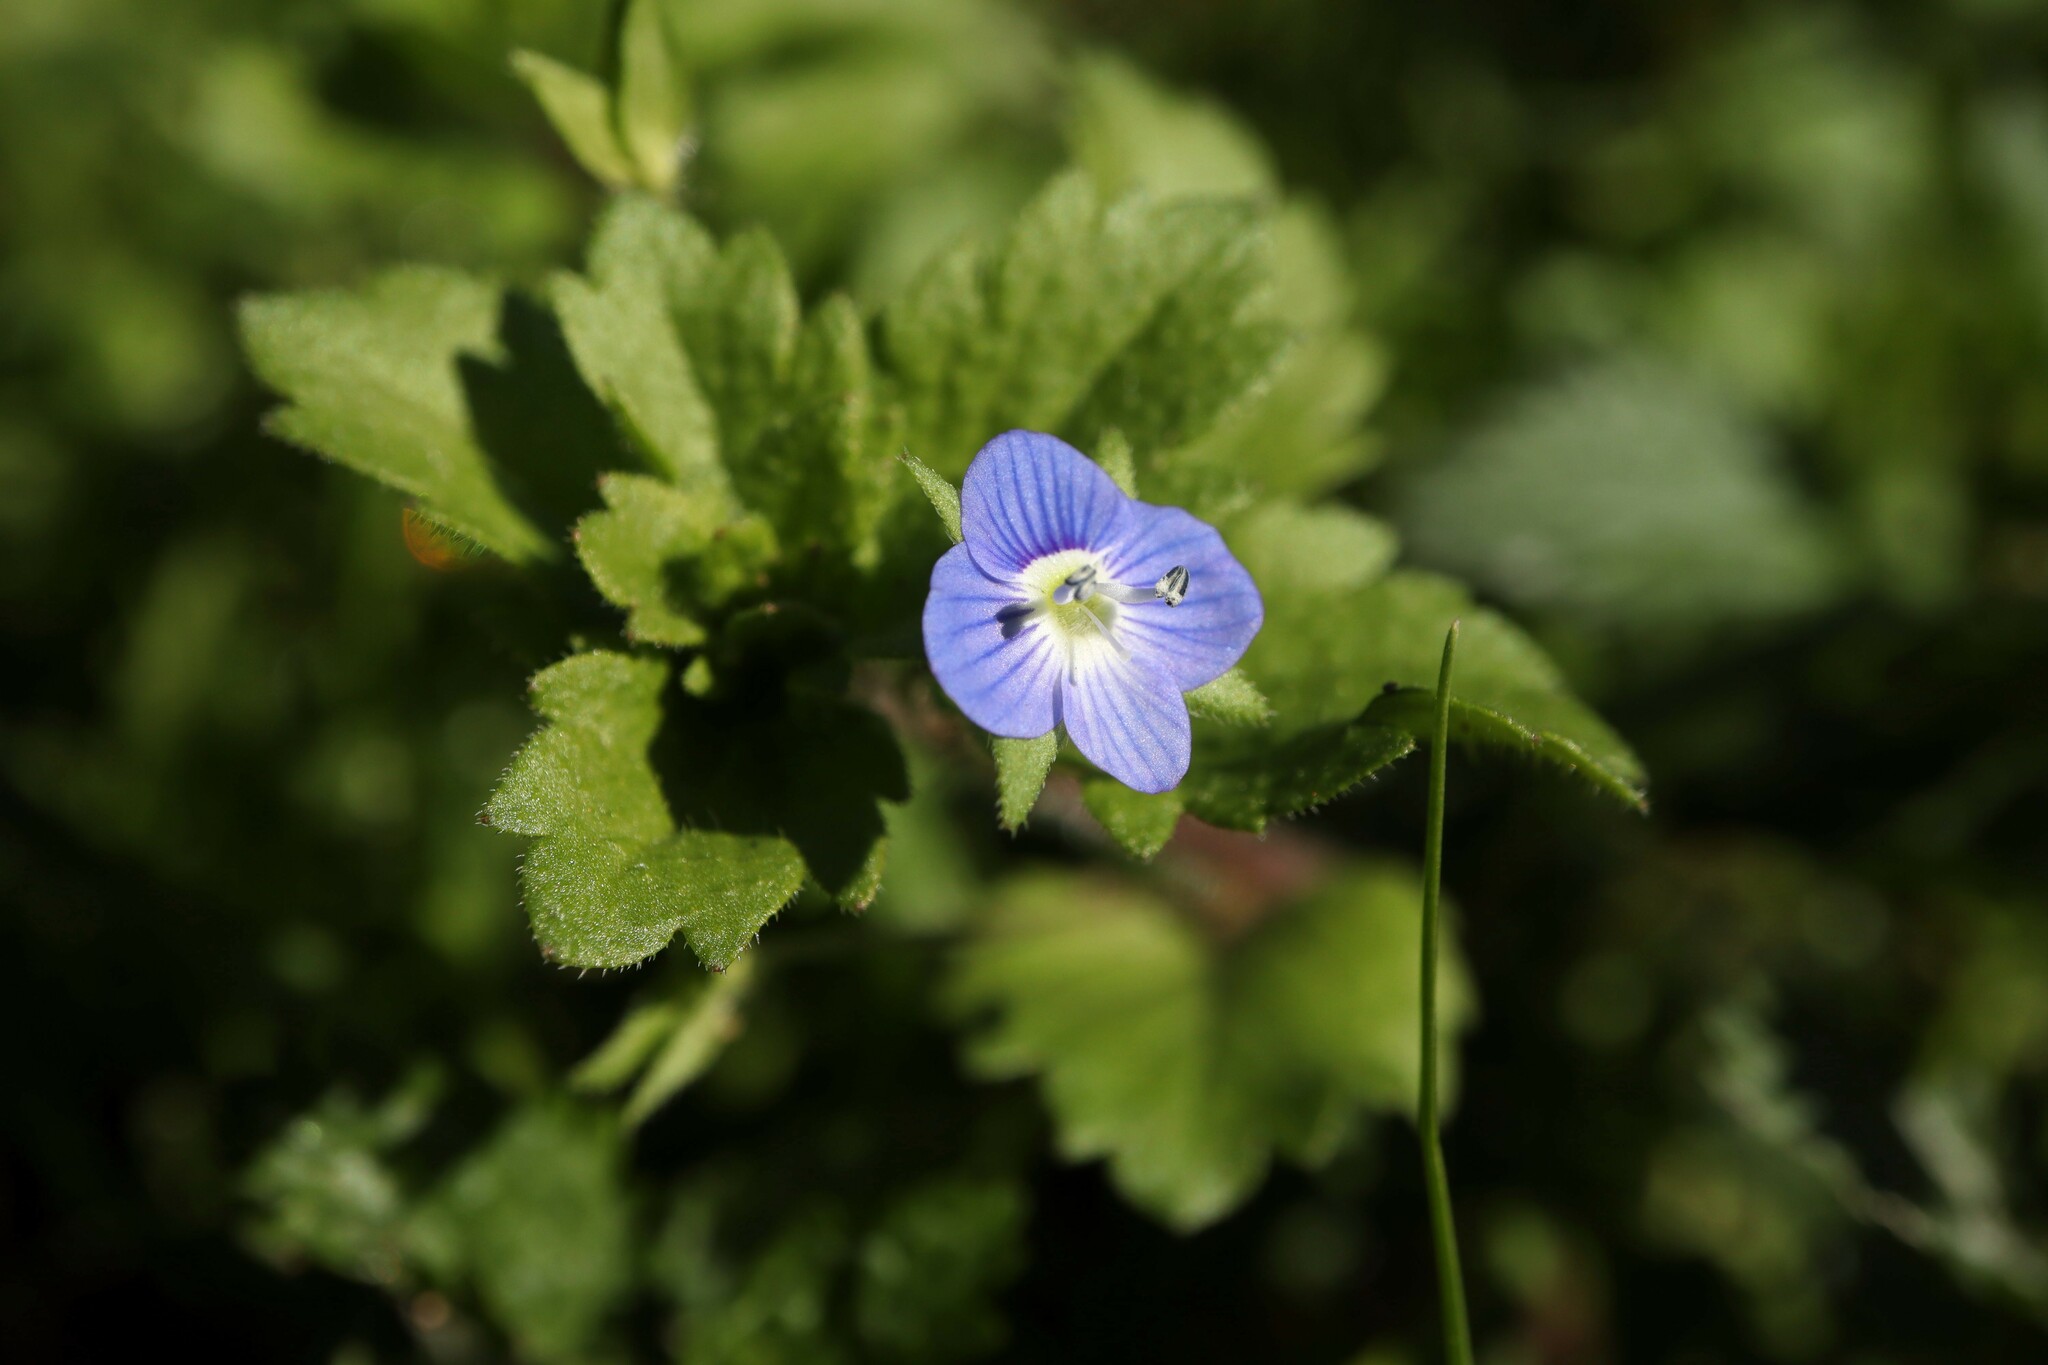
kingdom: Plantae
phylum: Tracheophyta
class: Magnoliopsida
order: Lamiales
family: Plantaginaceae
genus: Veronica
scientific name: Veronica persica
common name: Common field-speedwell
